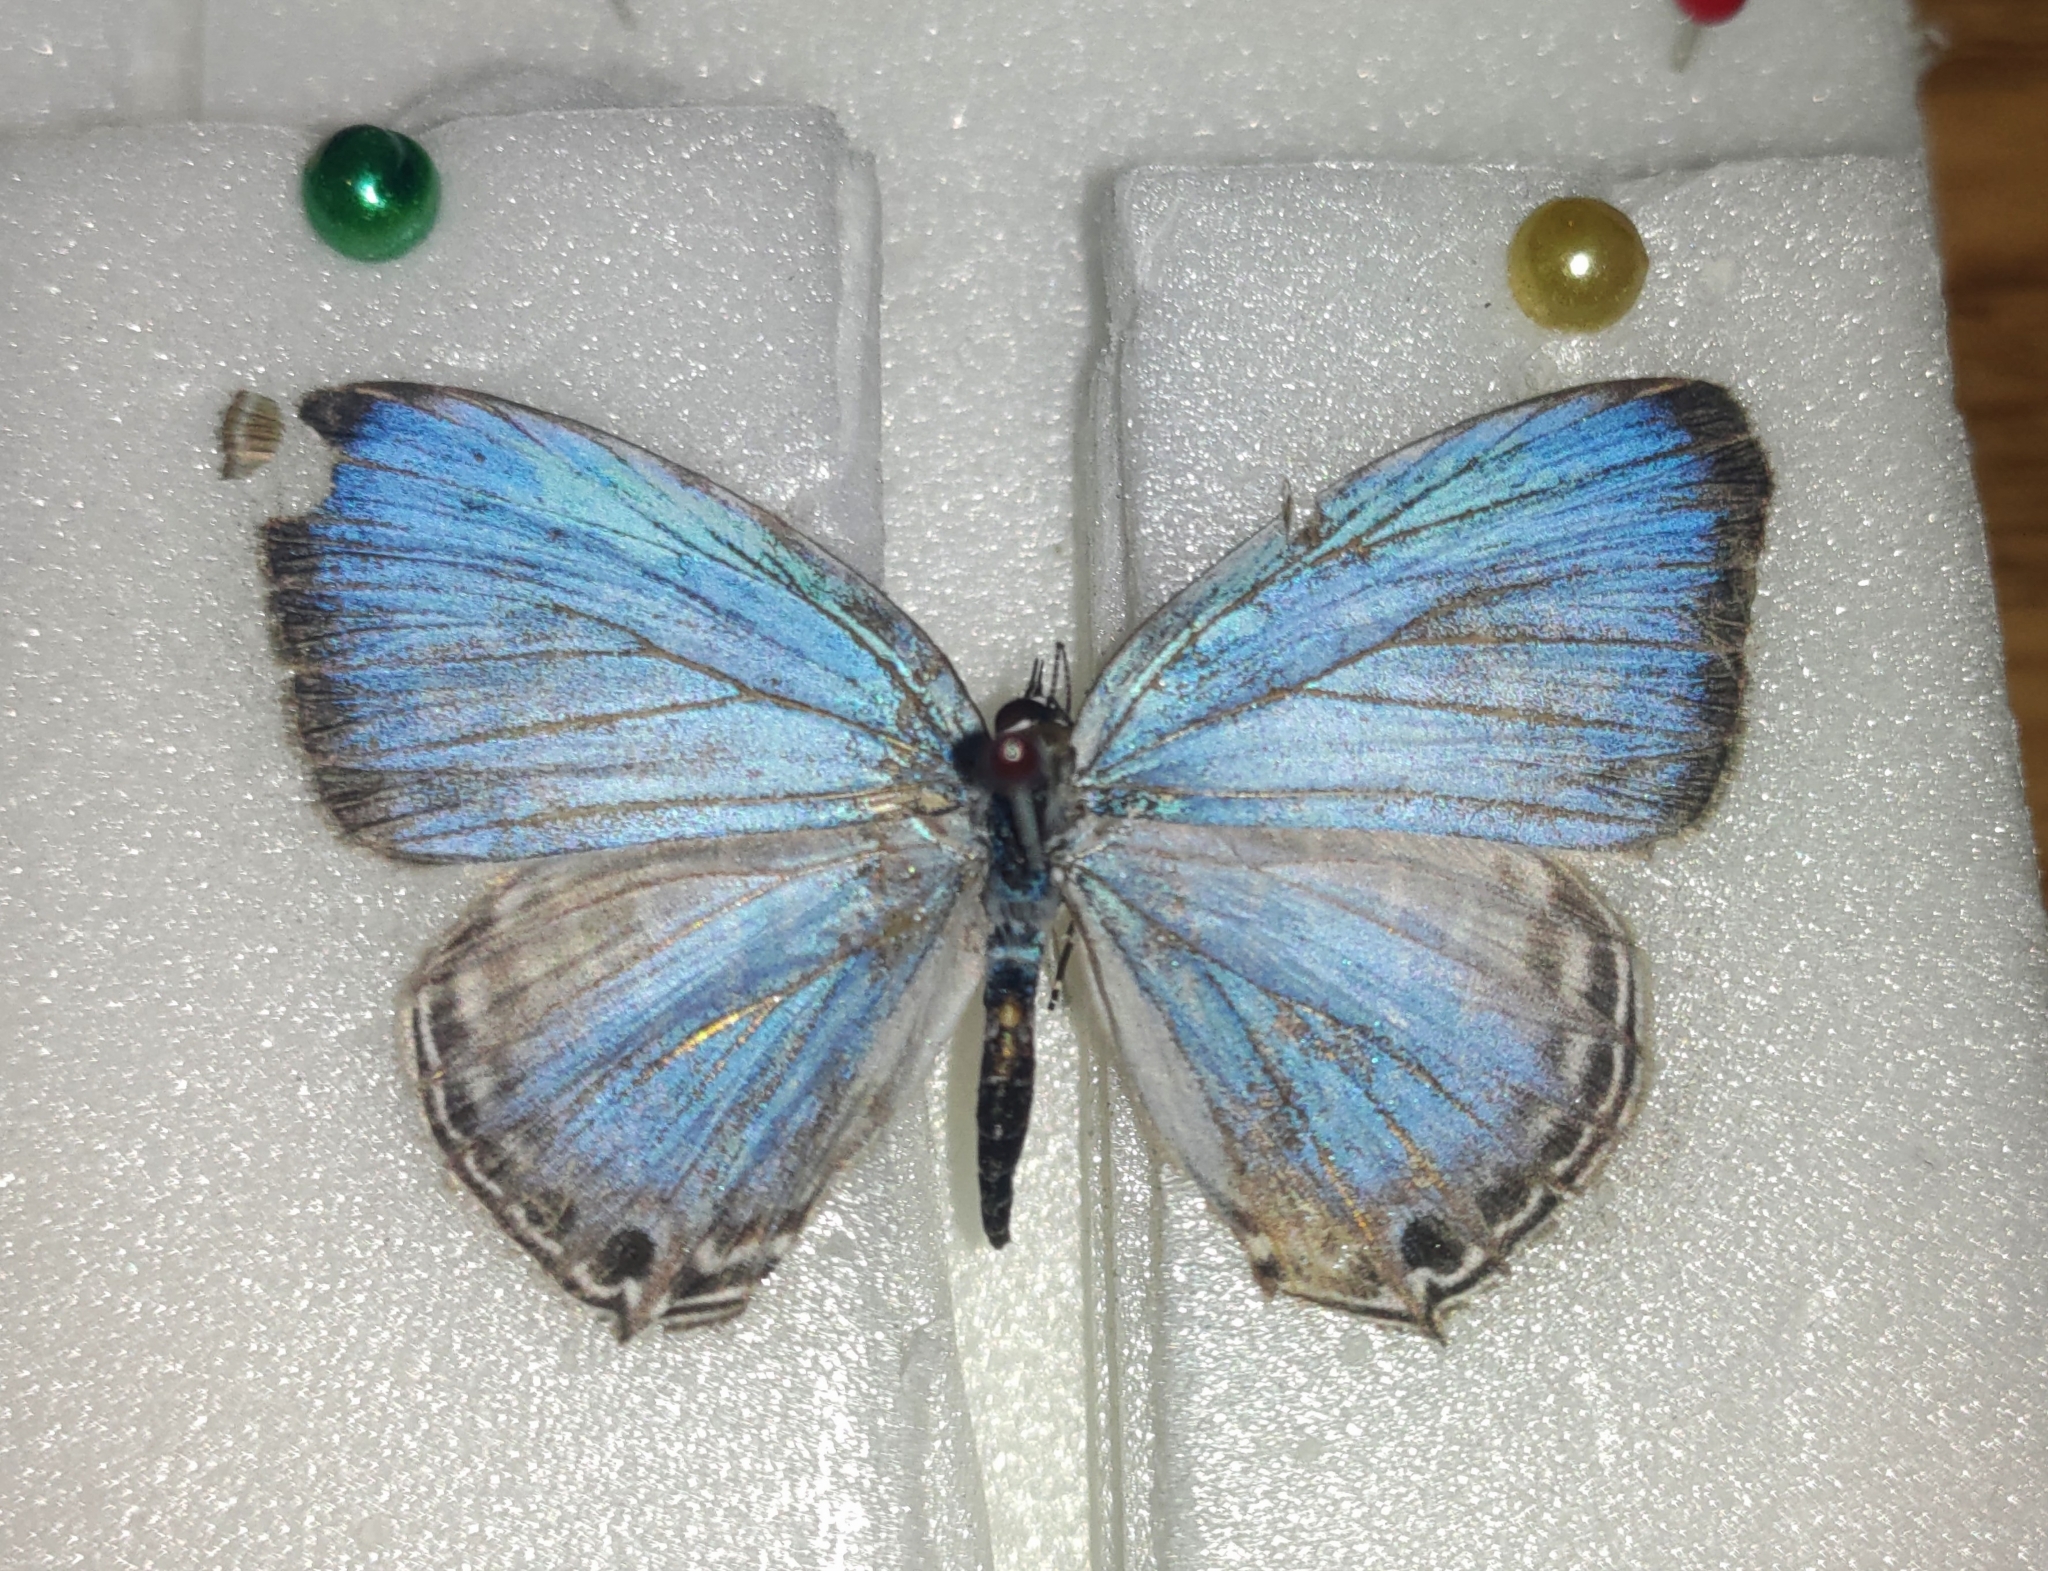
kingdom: Animalia
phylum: Arthropoda
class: Insecta
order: Lepidoptera
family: Lycaenidae
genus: Jamides
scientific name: Jamides alecto
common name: Metallic cerulean
